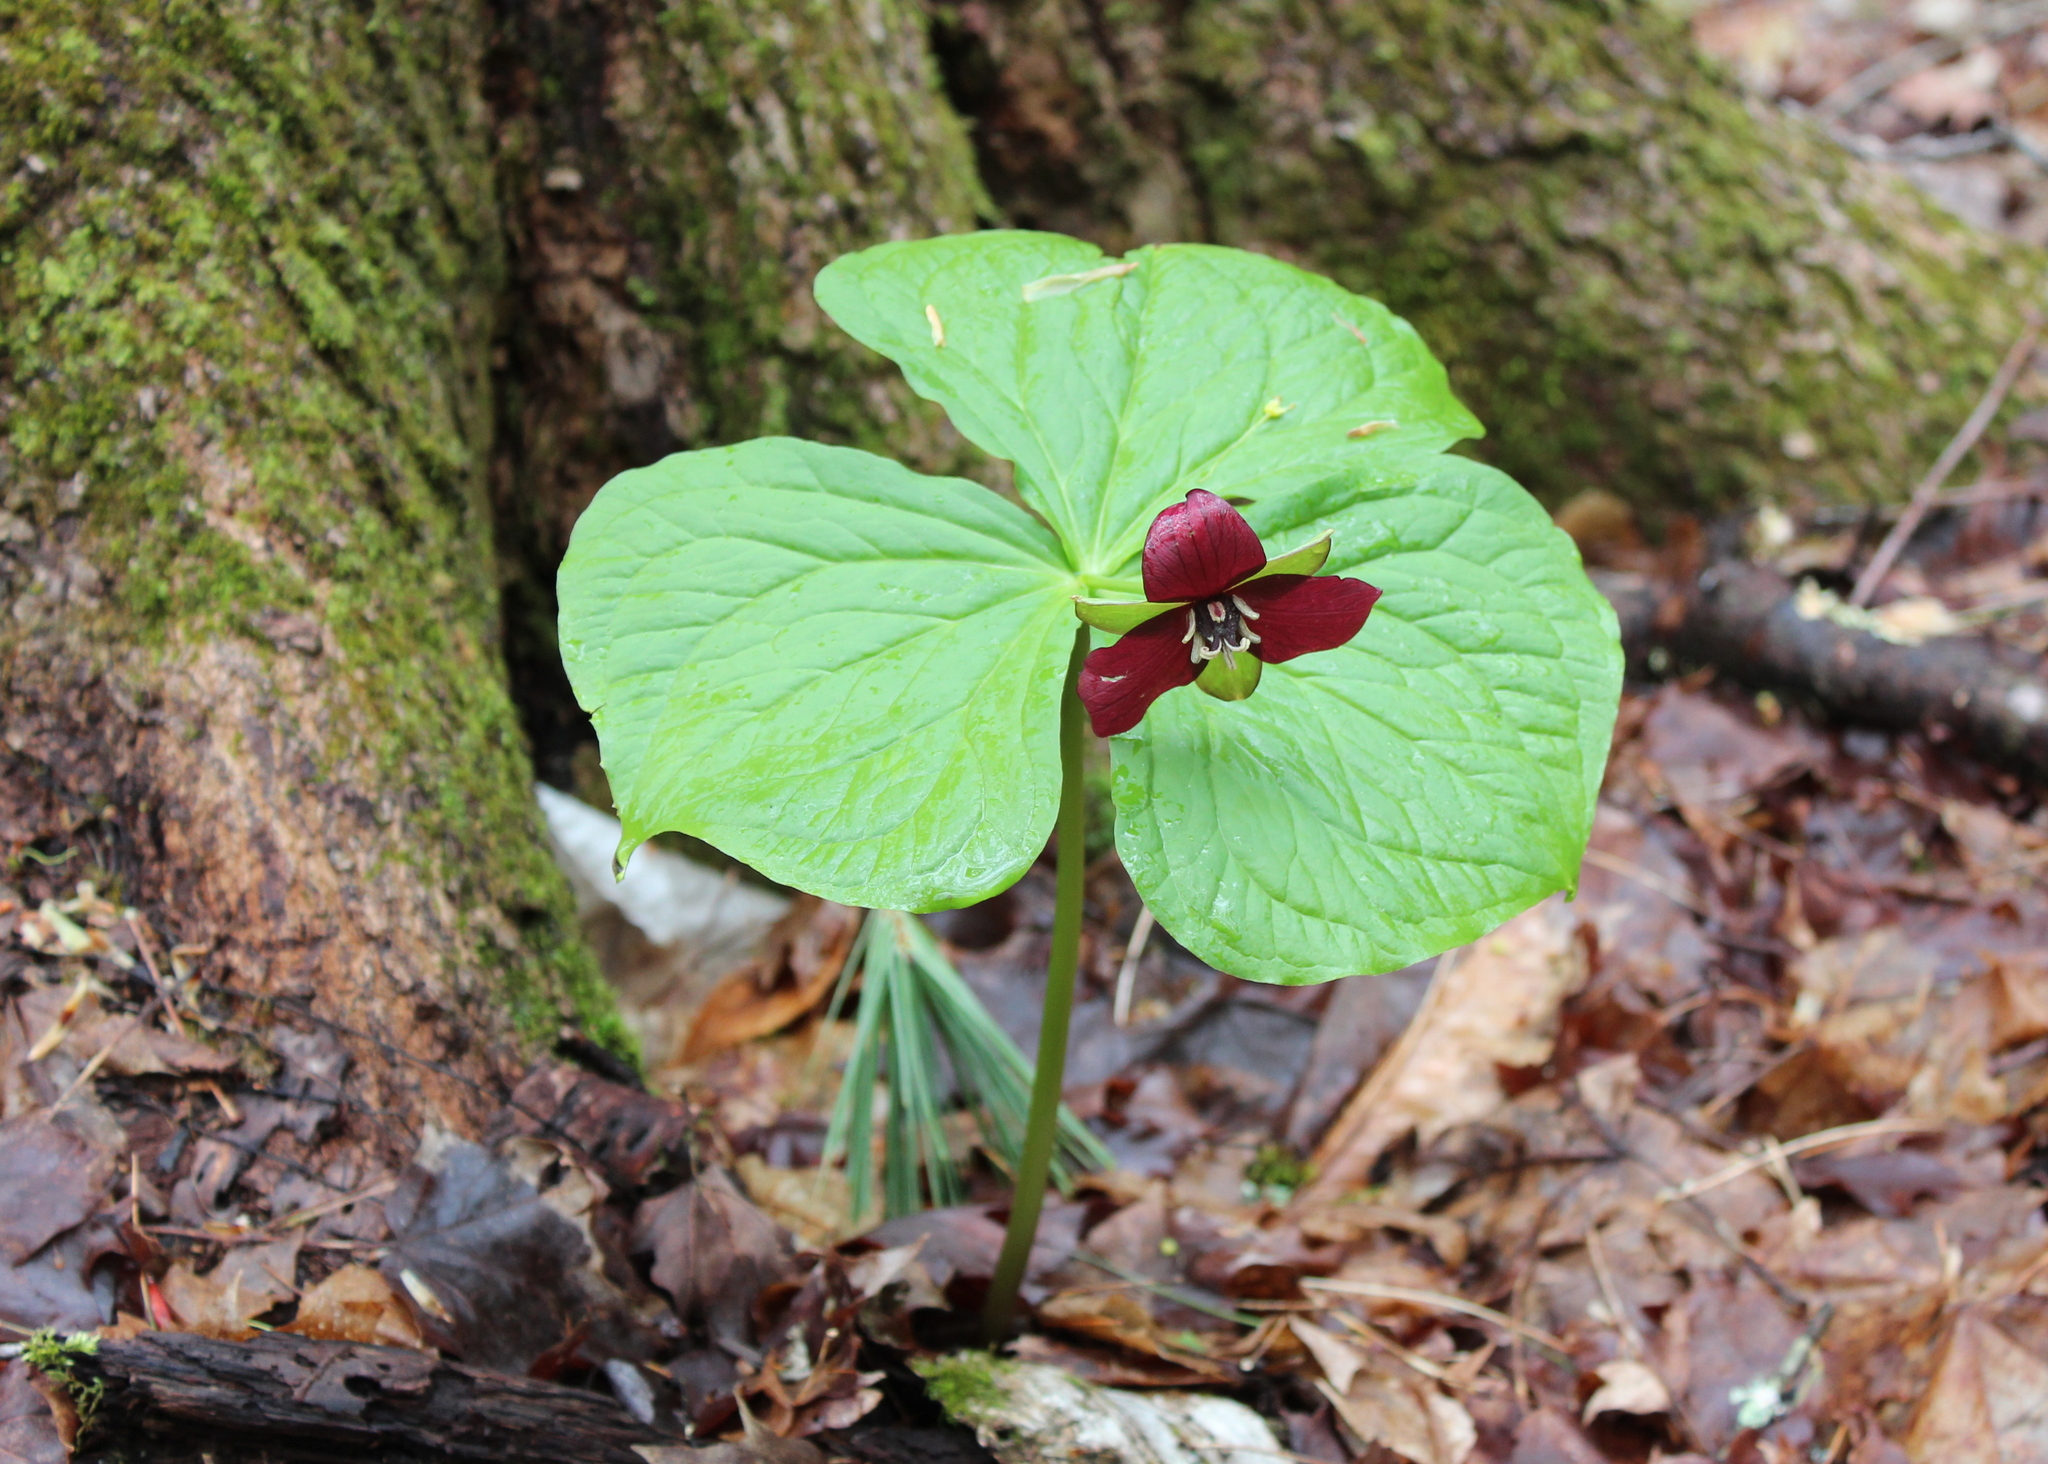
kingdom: Plantae
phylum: Tracheophyta
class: Liliopsida
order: Liliales
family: Melanthiaceae
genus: Trillium
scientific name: Trillium erectum
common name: Purple trillium
